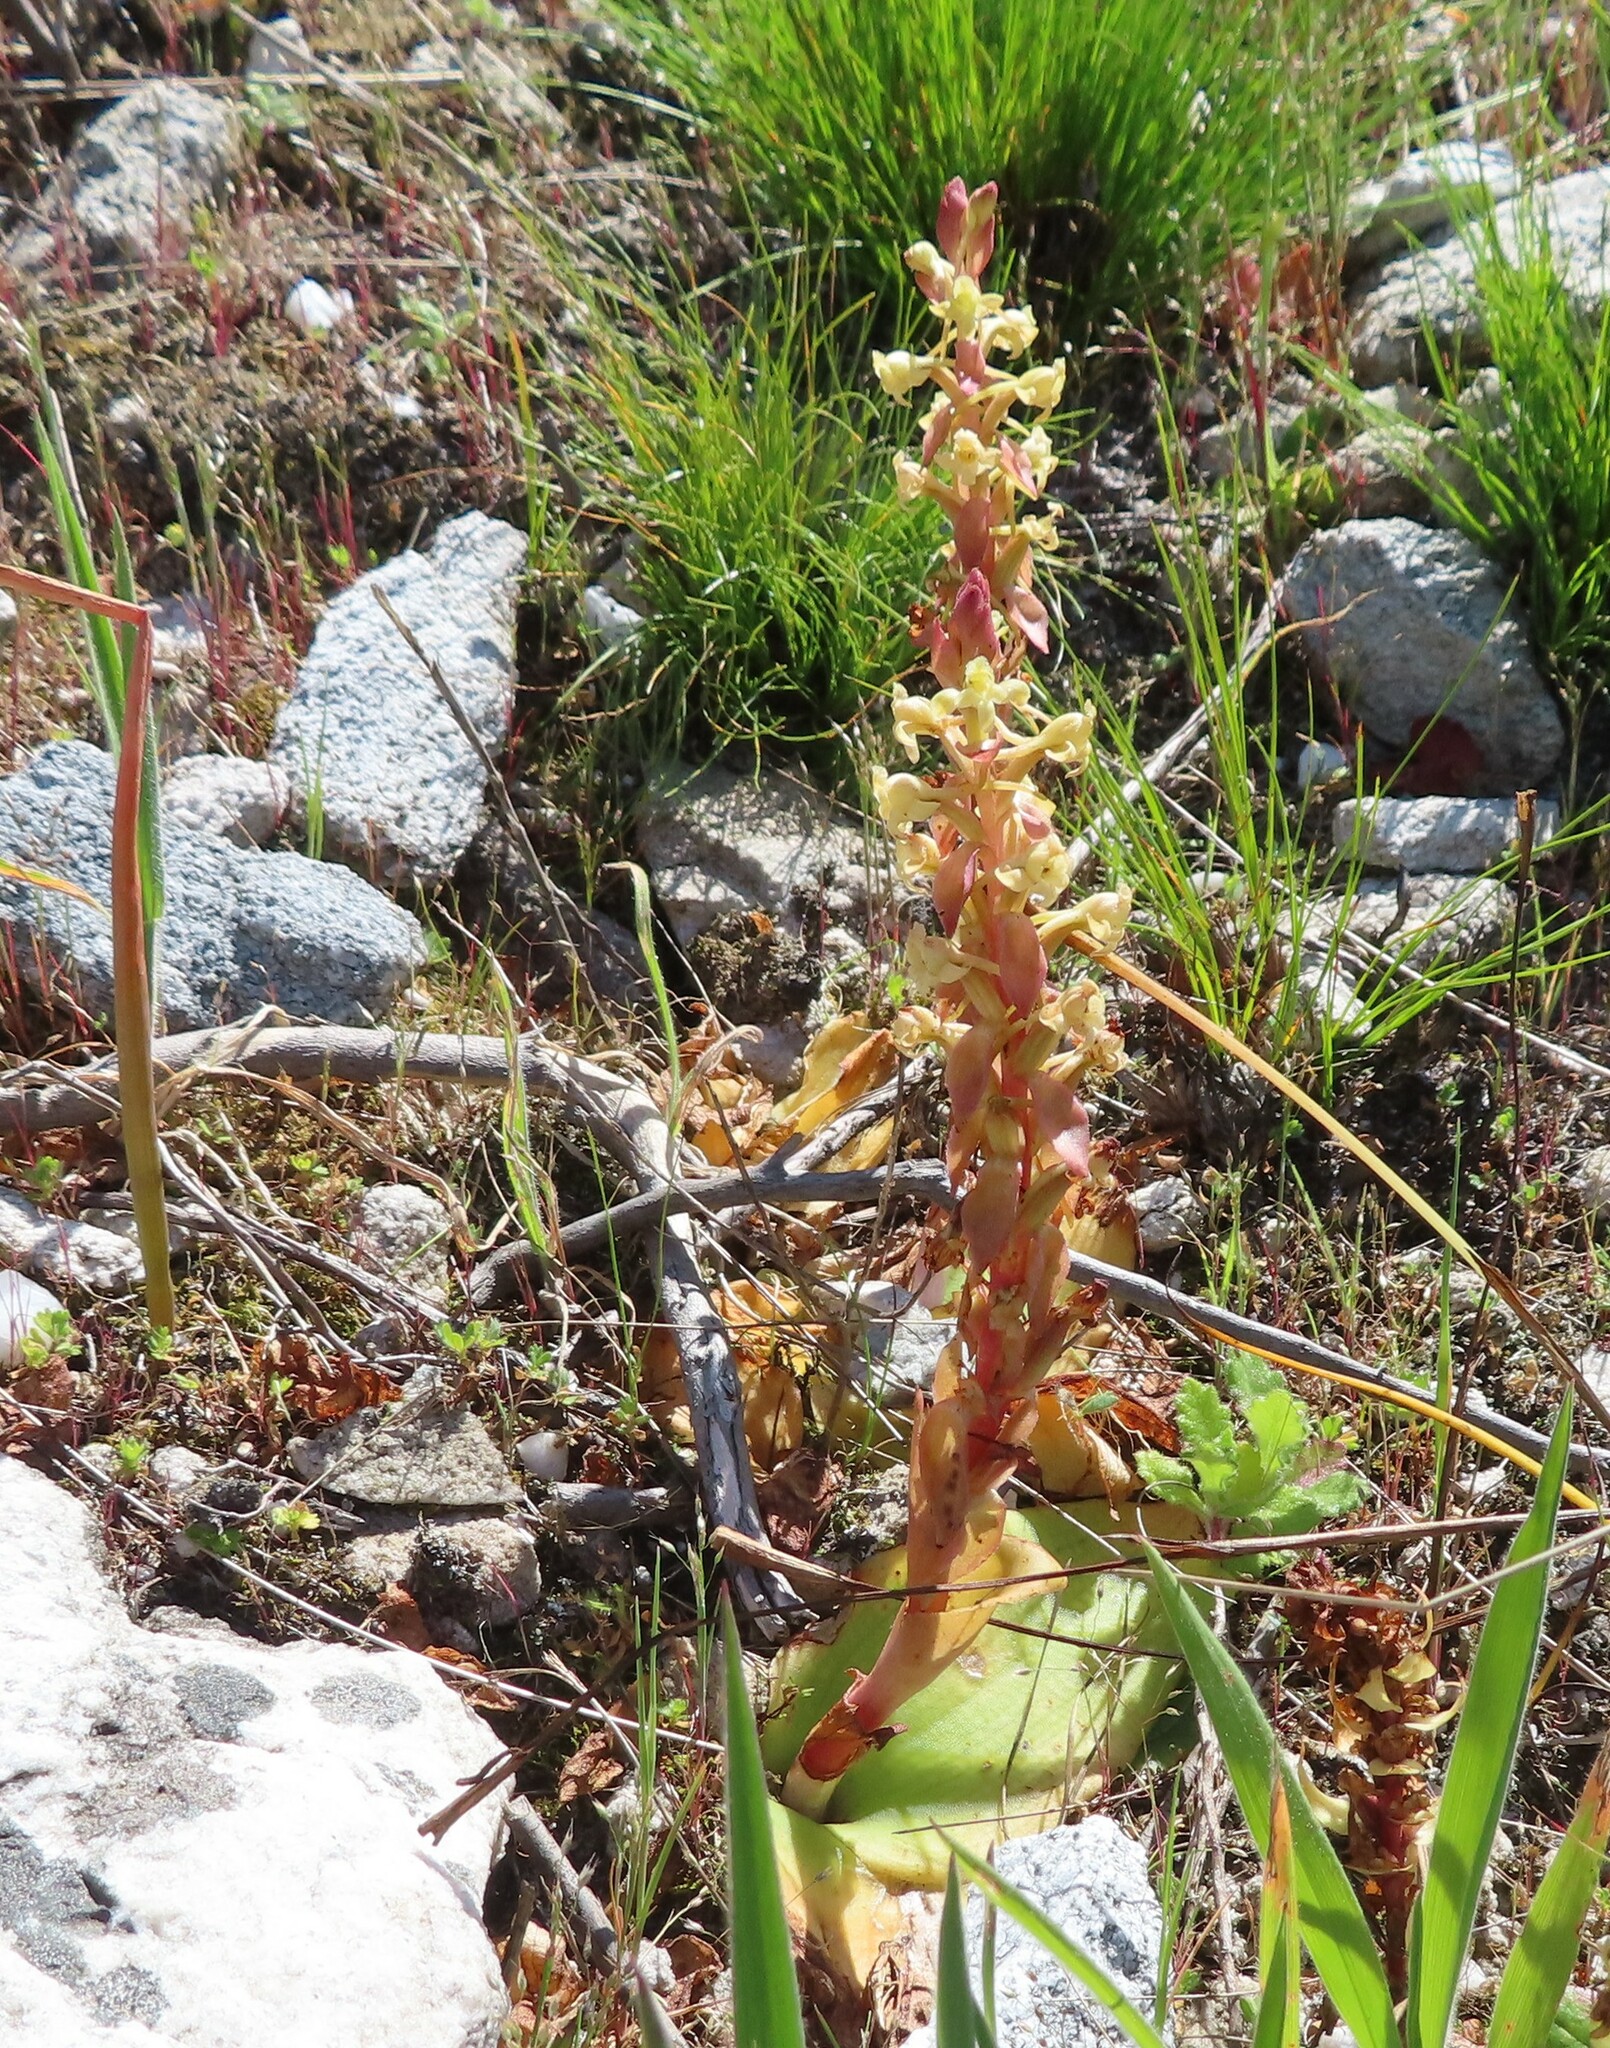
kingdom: Plantae
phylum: Tracheophyta
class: Liliopsida
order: Asparagales
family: Orchidaceae
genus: Satyrium
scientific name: Satyrium humile
